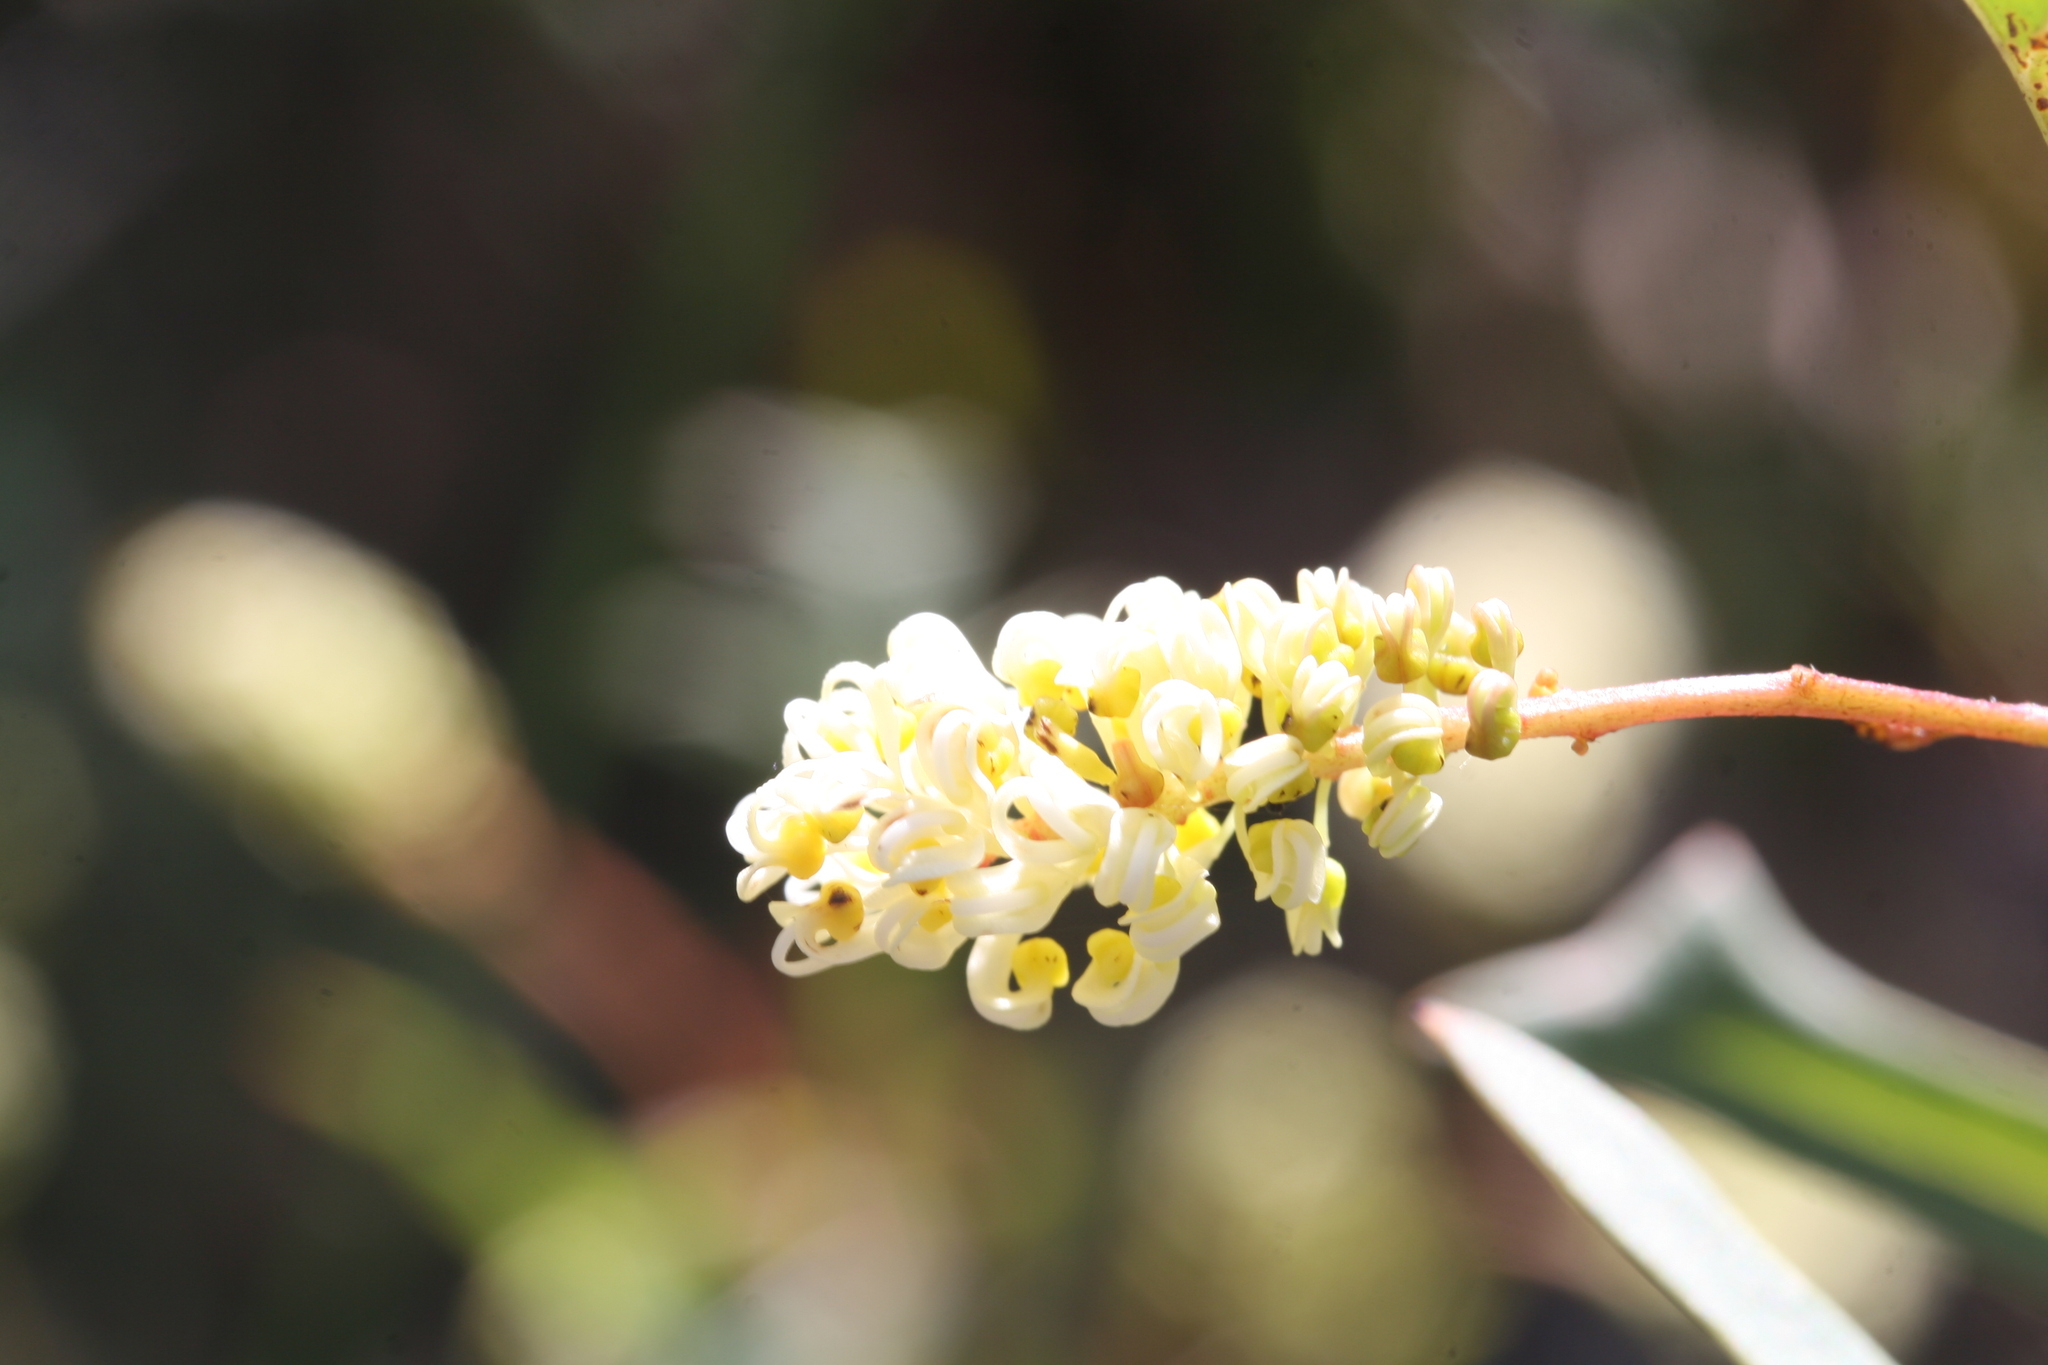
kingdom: Plantae
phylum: Tracheophyta
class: Magnoliopsida
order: Proteales
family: Proteaceae
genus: Grevillea
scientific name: Grevillea synaphea
